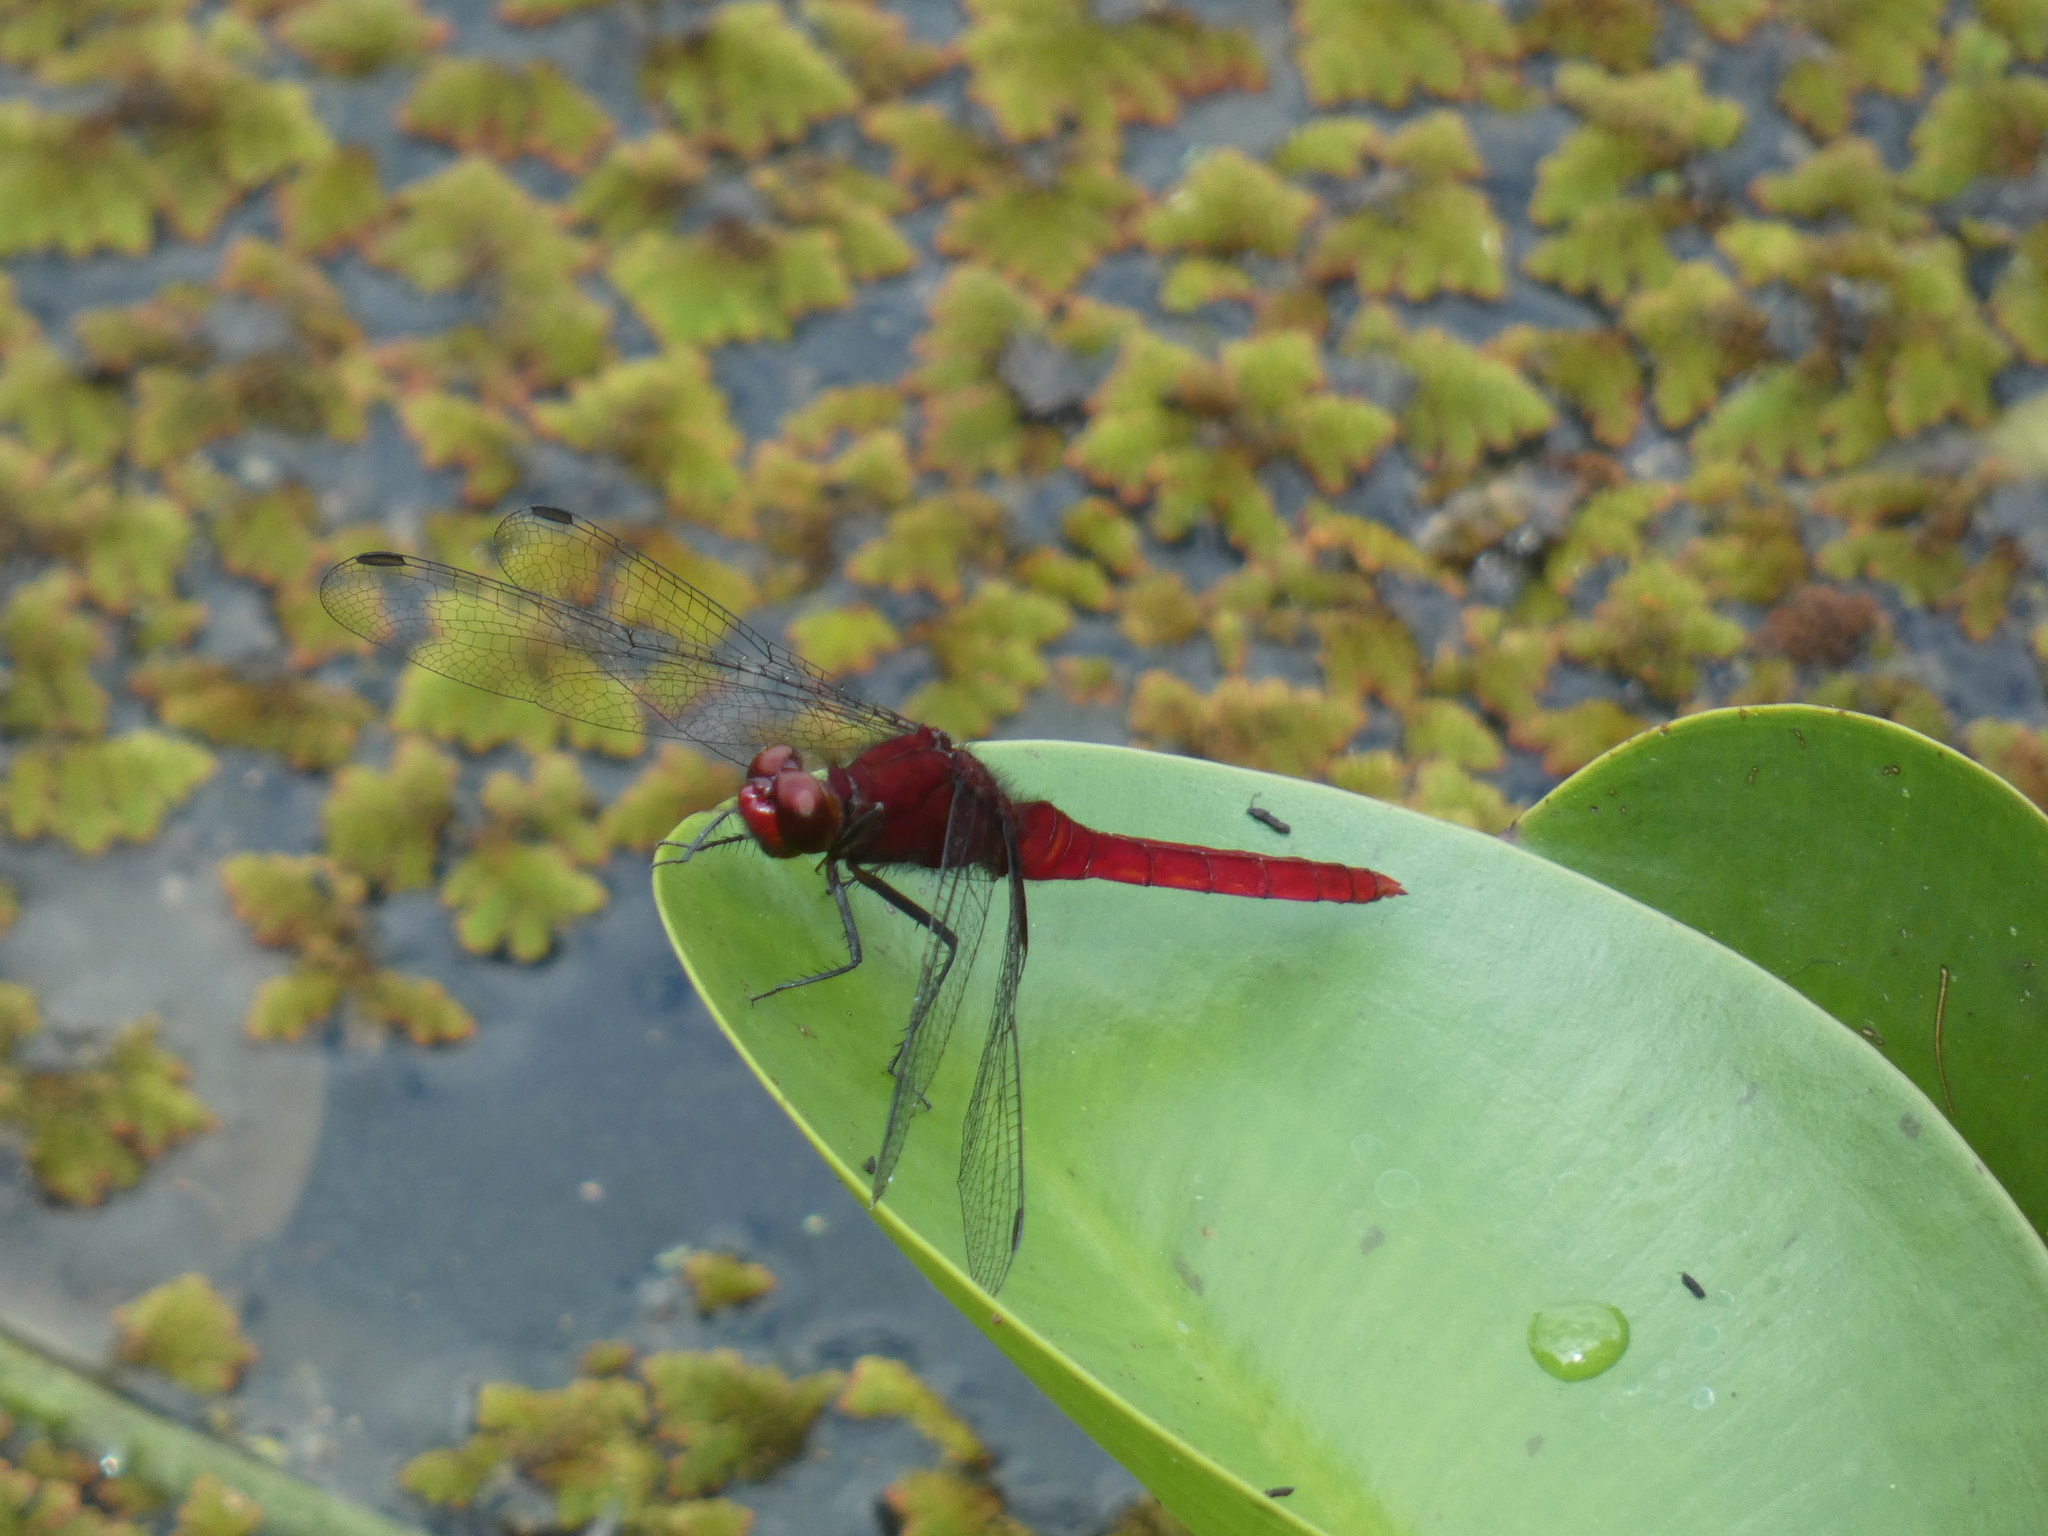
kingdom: Animalia
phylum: Arthropoda
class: Insecta
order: Odonata
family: Libellulidae
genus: Erythemis
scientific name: Erythemis mithroides
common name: Claret pondhawk
